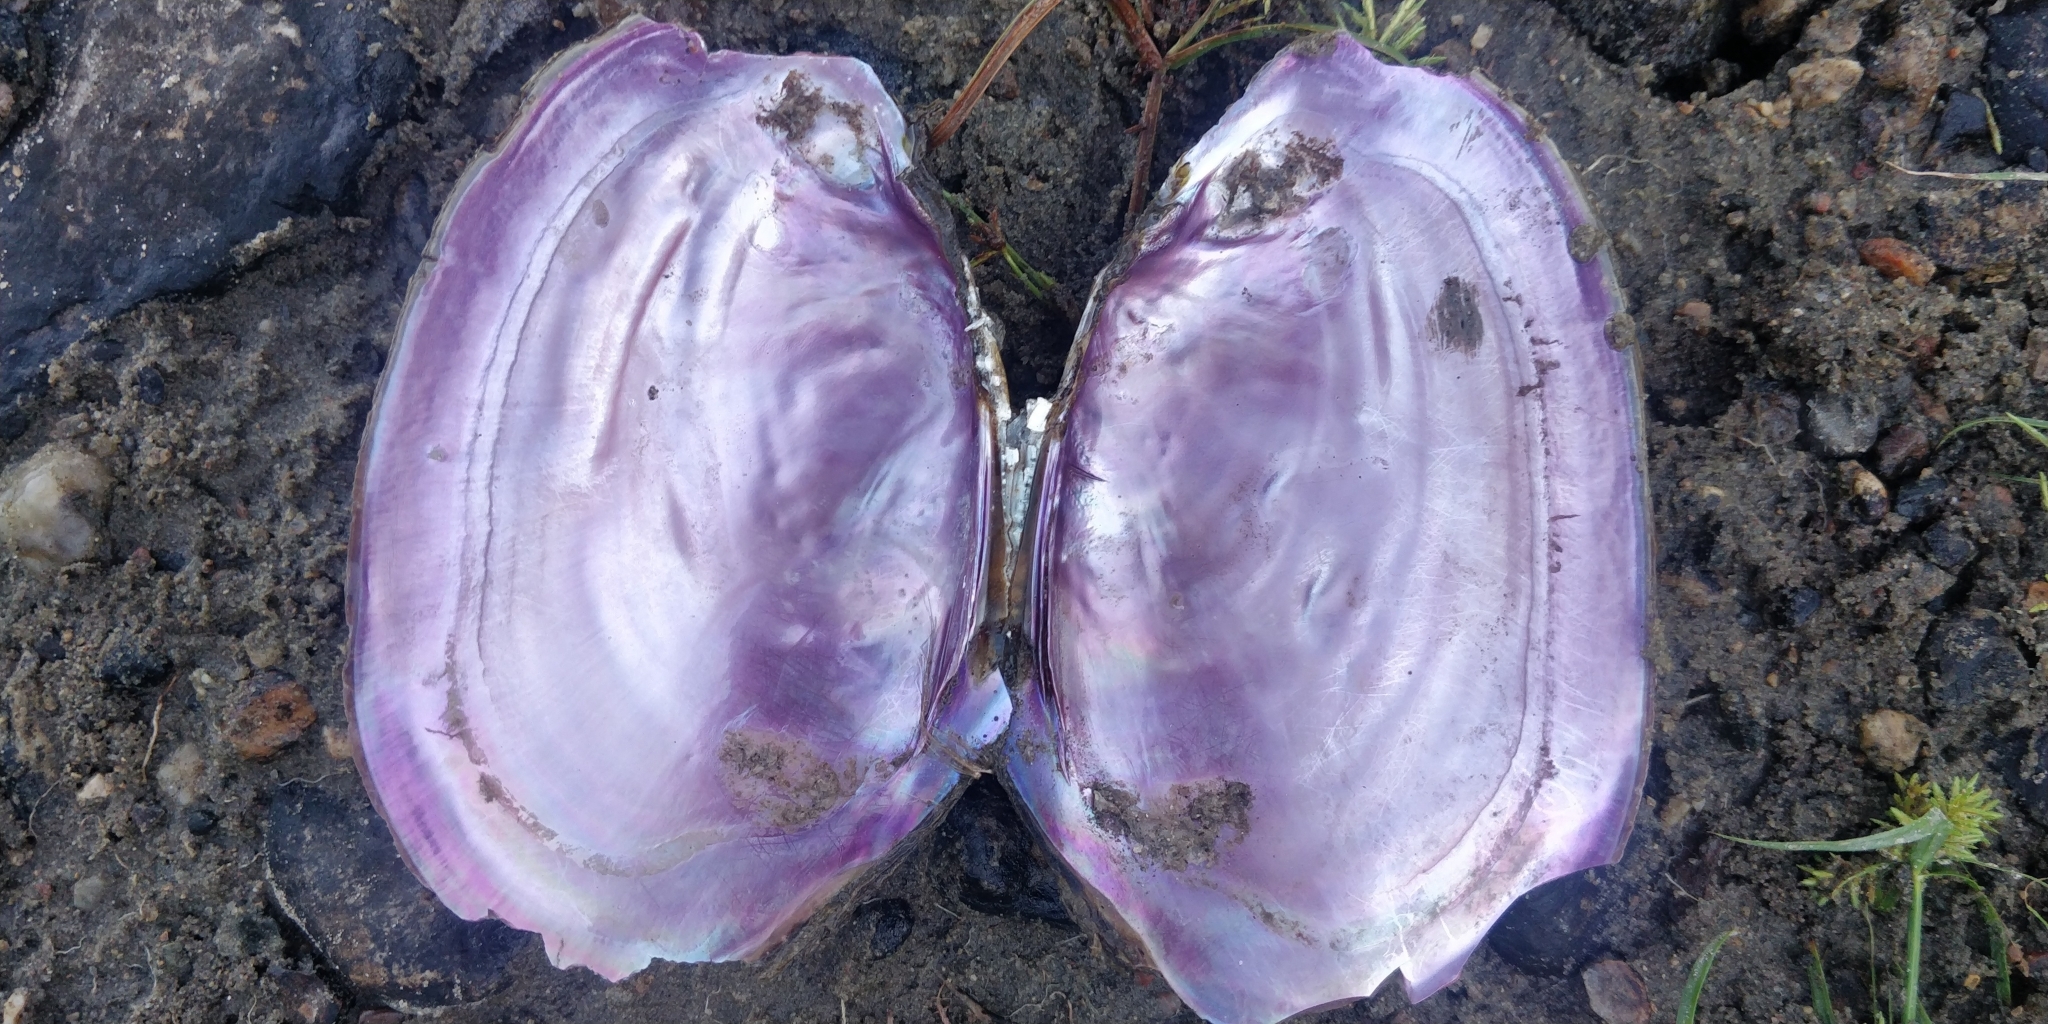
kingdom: Animalia
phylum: Mollusca
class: Bivalvia
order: Unionida
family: Unionidae
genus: Potamilus
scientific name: Potamilus ohiensis
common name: Pink papershell
